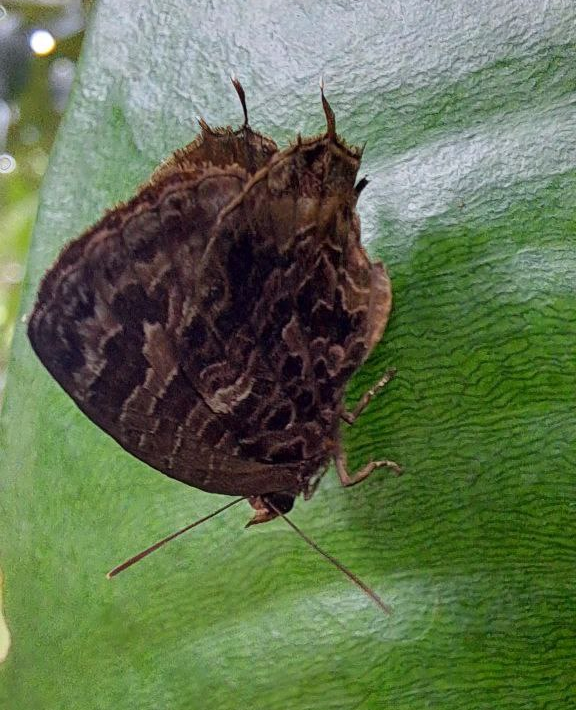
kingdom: Animalia
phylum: Arthropoda
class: Insecta
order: Lepidoptera
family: Lycaenidae
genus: Arhopala
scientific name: Arhopala abseus
